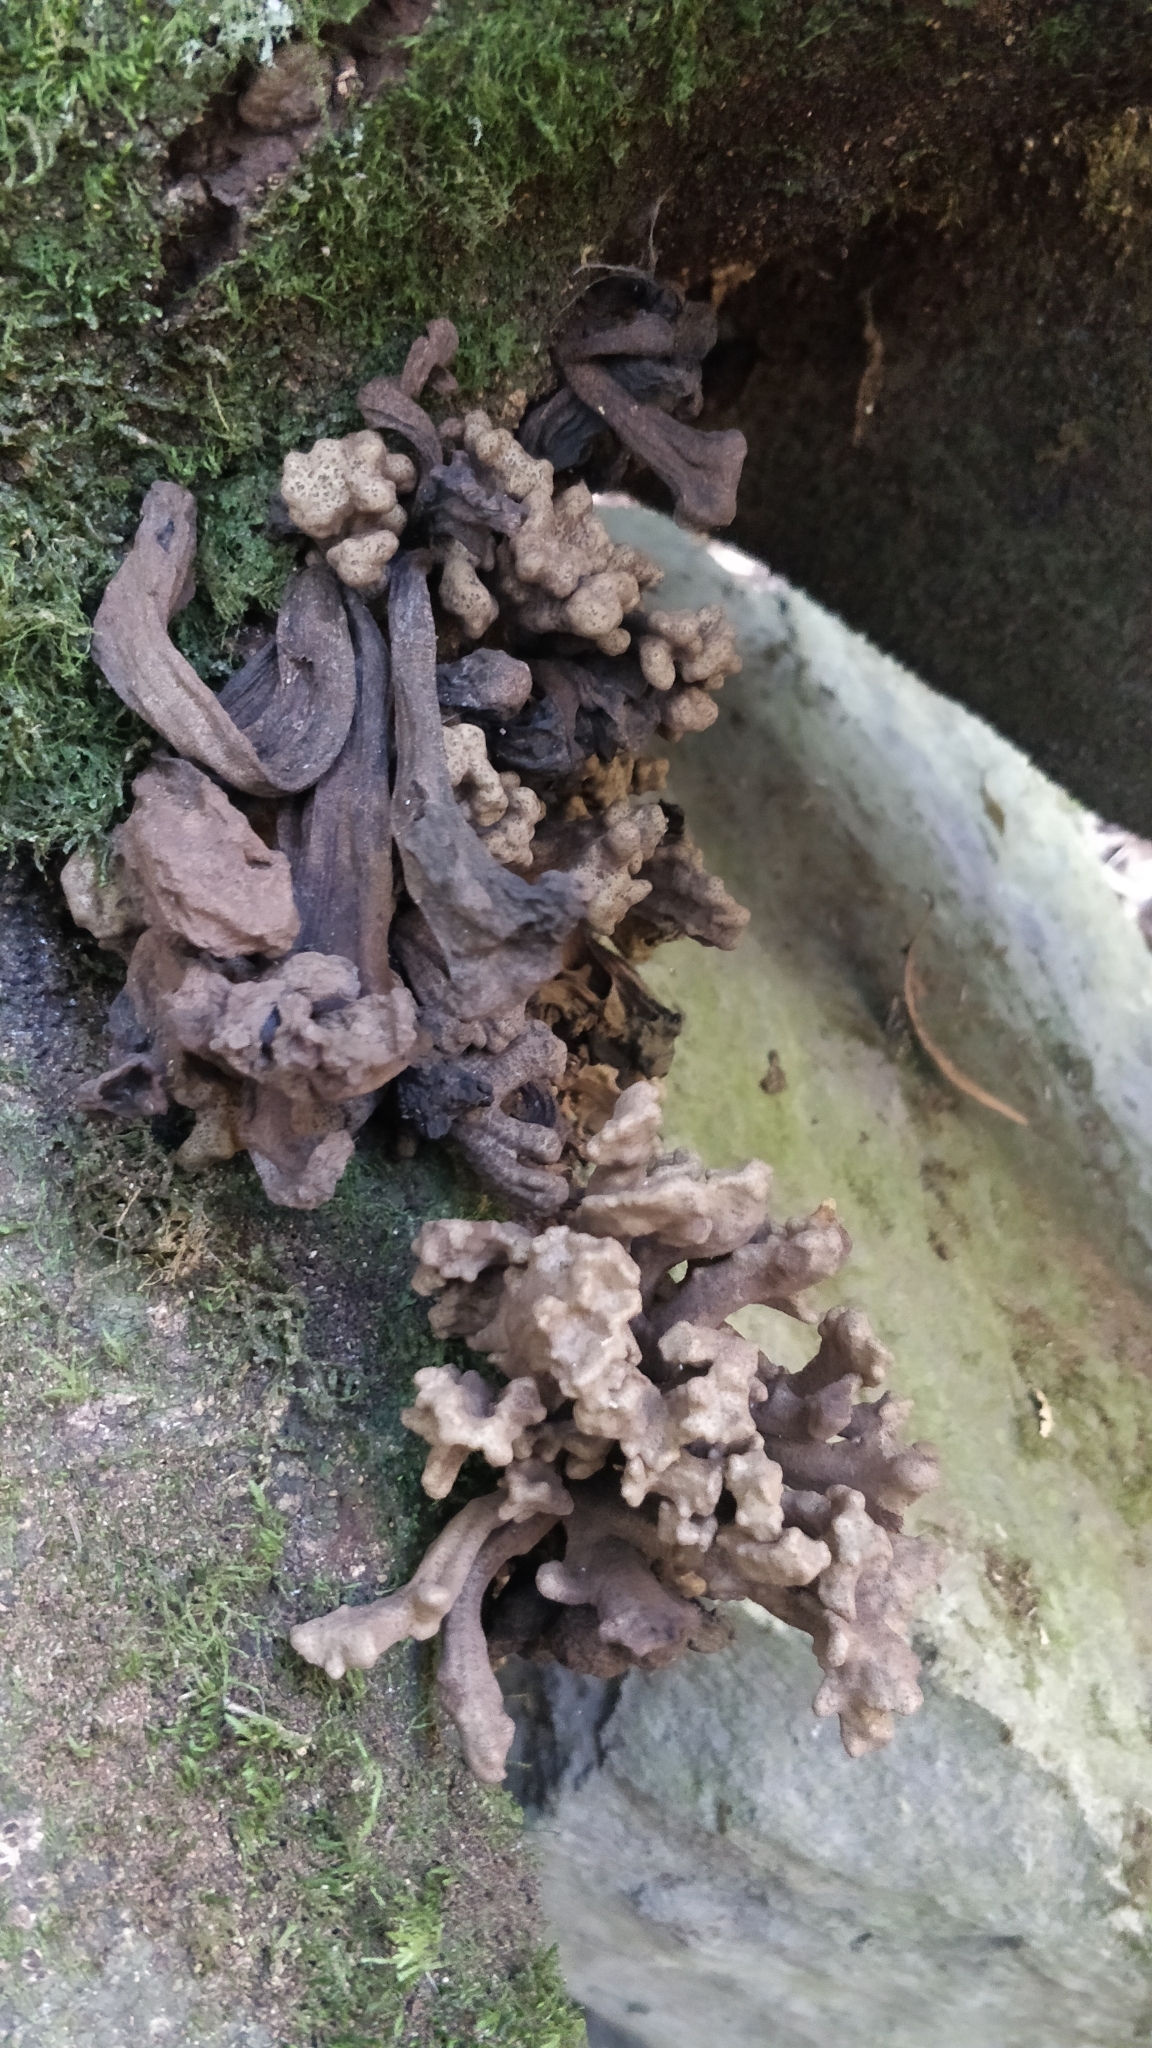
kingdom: Fungi
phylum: Basidiomycota
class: Exobasidiomycetes
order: Exobasidiales
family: Laurobasidiaceae
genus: Laurobasidium
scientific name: Laurobasidium lauri
